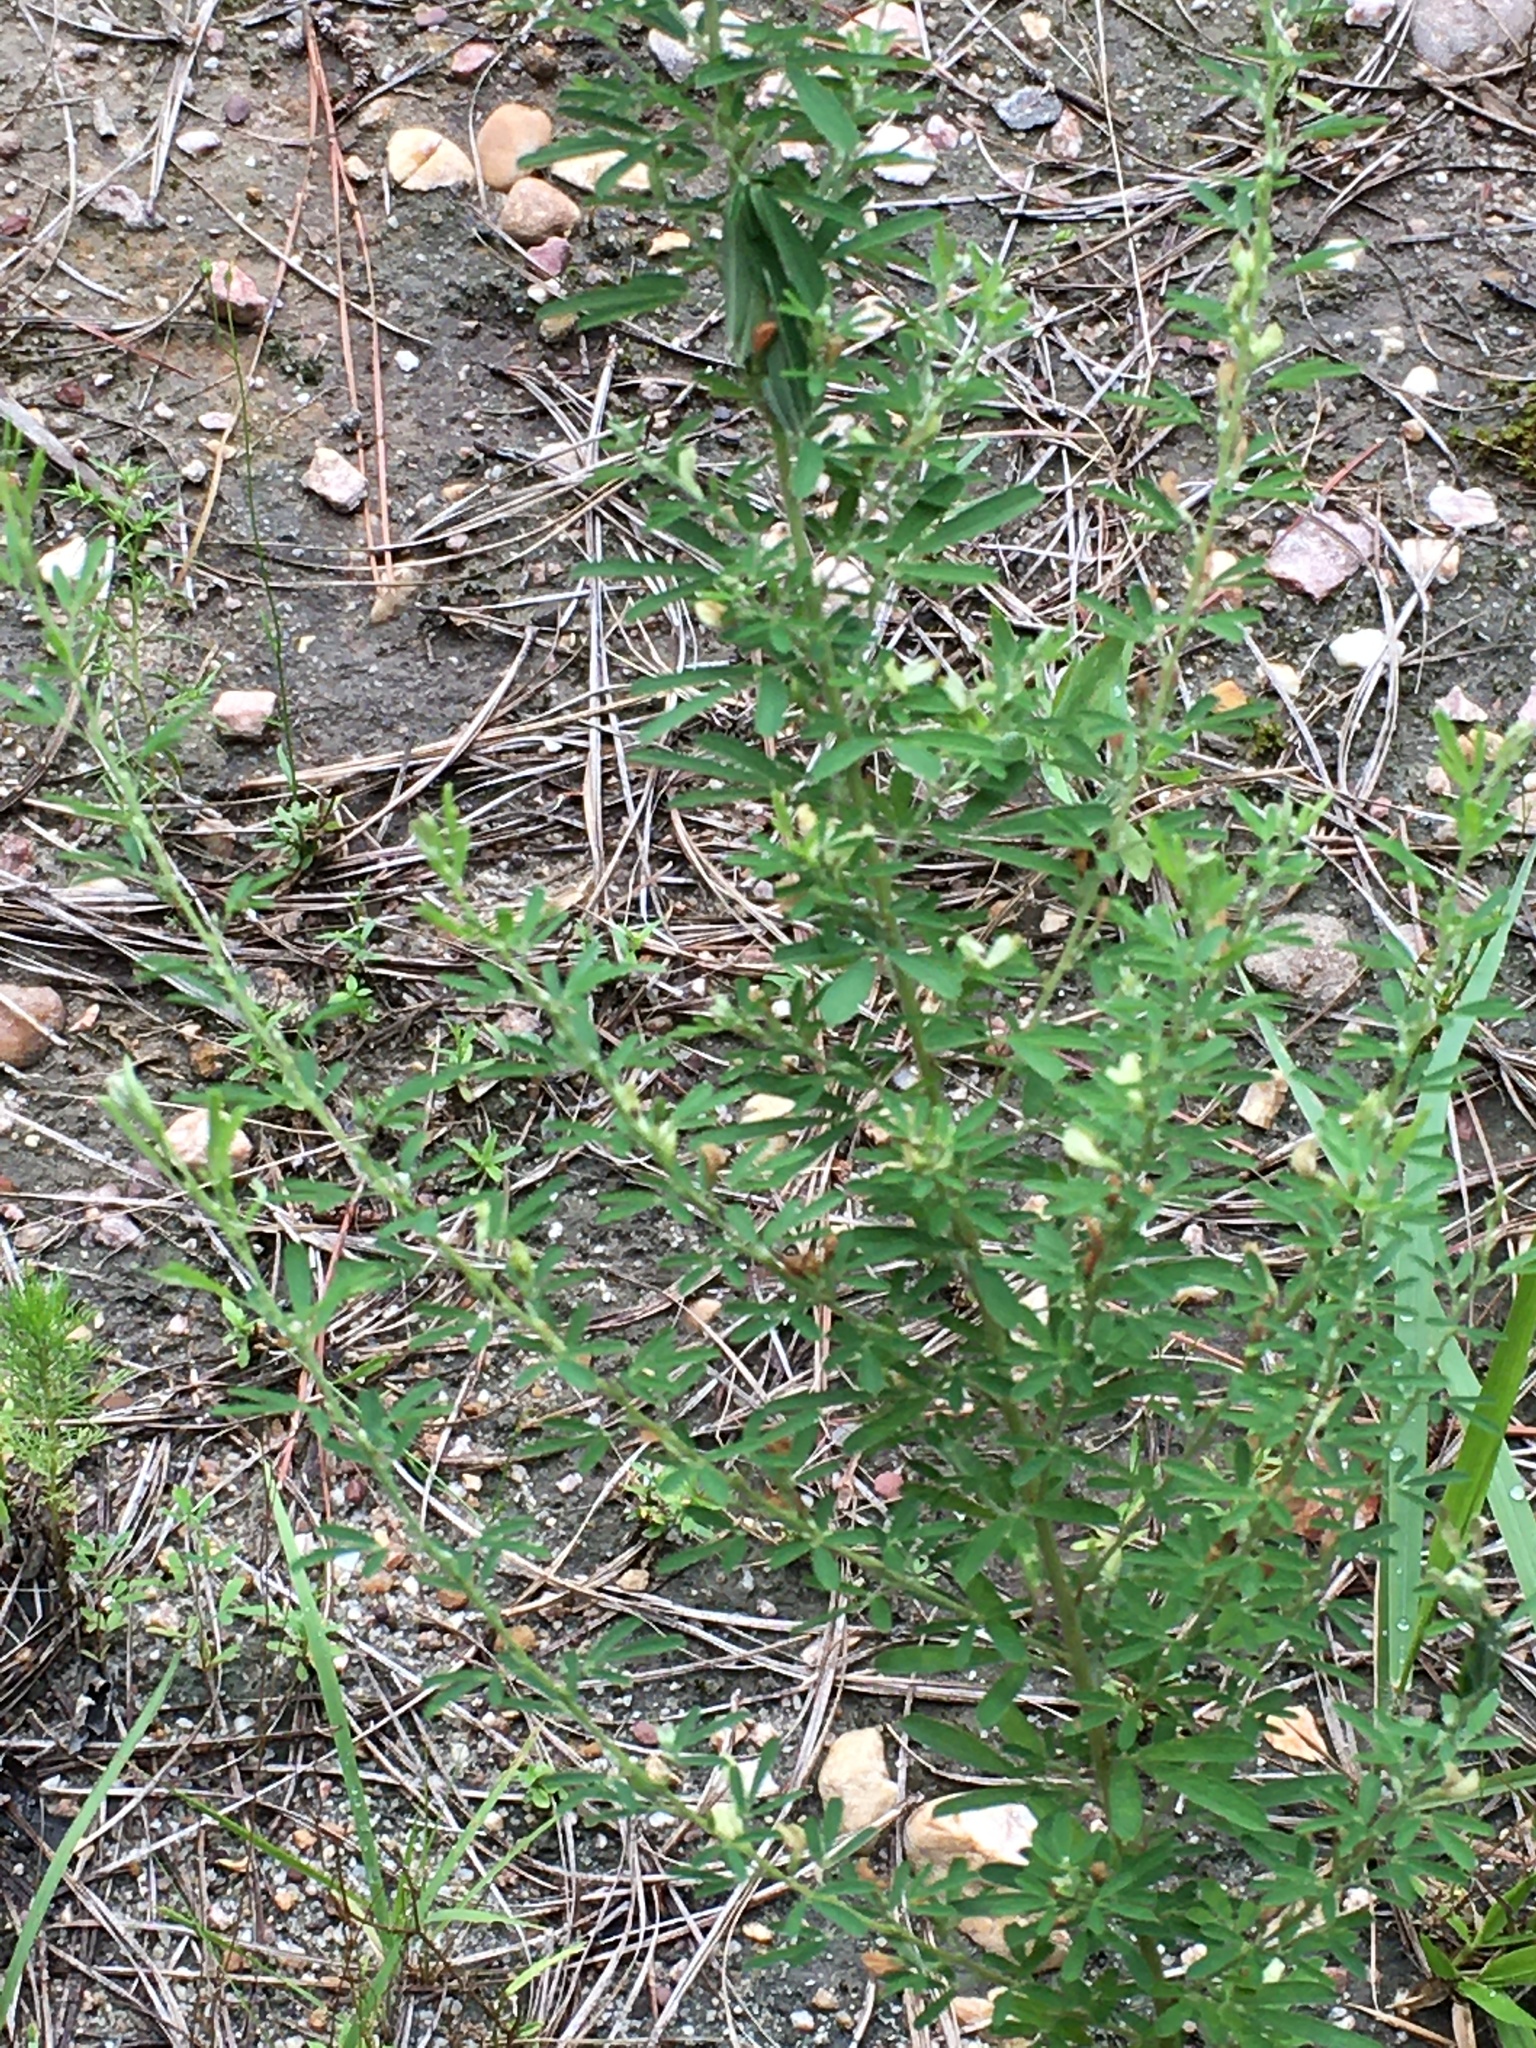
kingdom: Plantae
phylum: Tracheophyta
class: Magnoliopsida
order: Fabales
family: Fabaceae
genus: Lespedeza
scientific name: Lespedeza cuneata
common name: Chinese bush-clover
